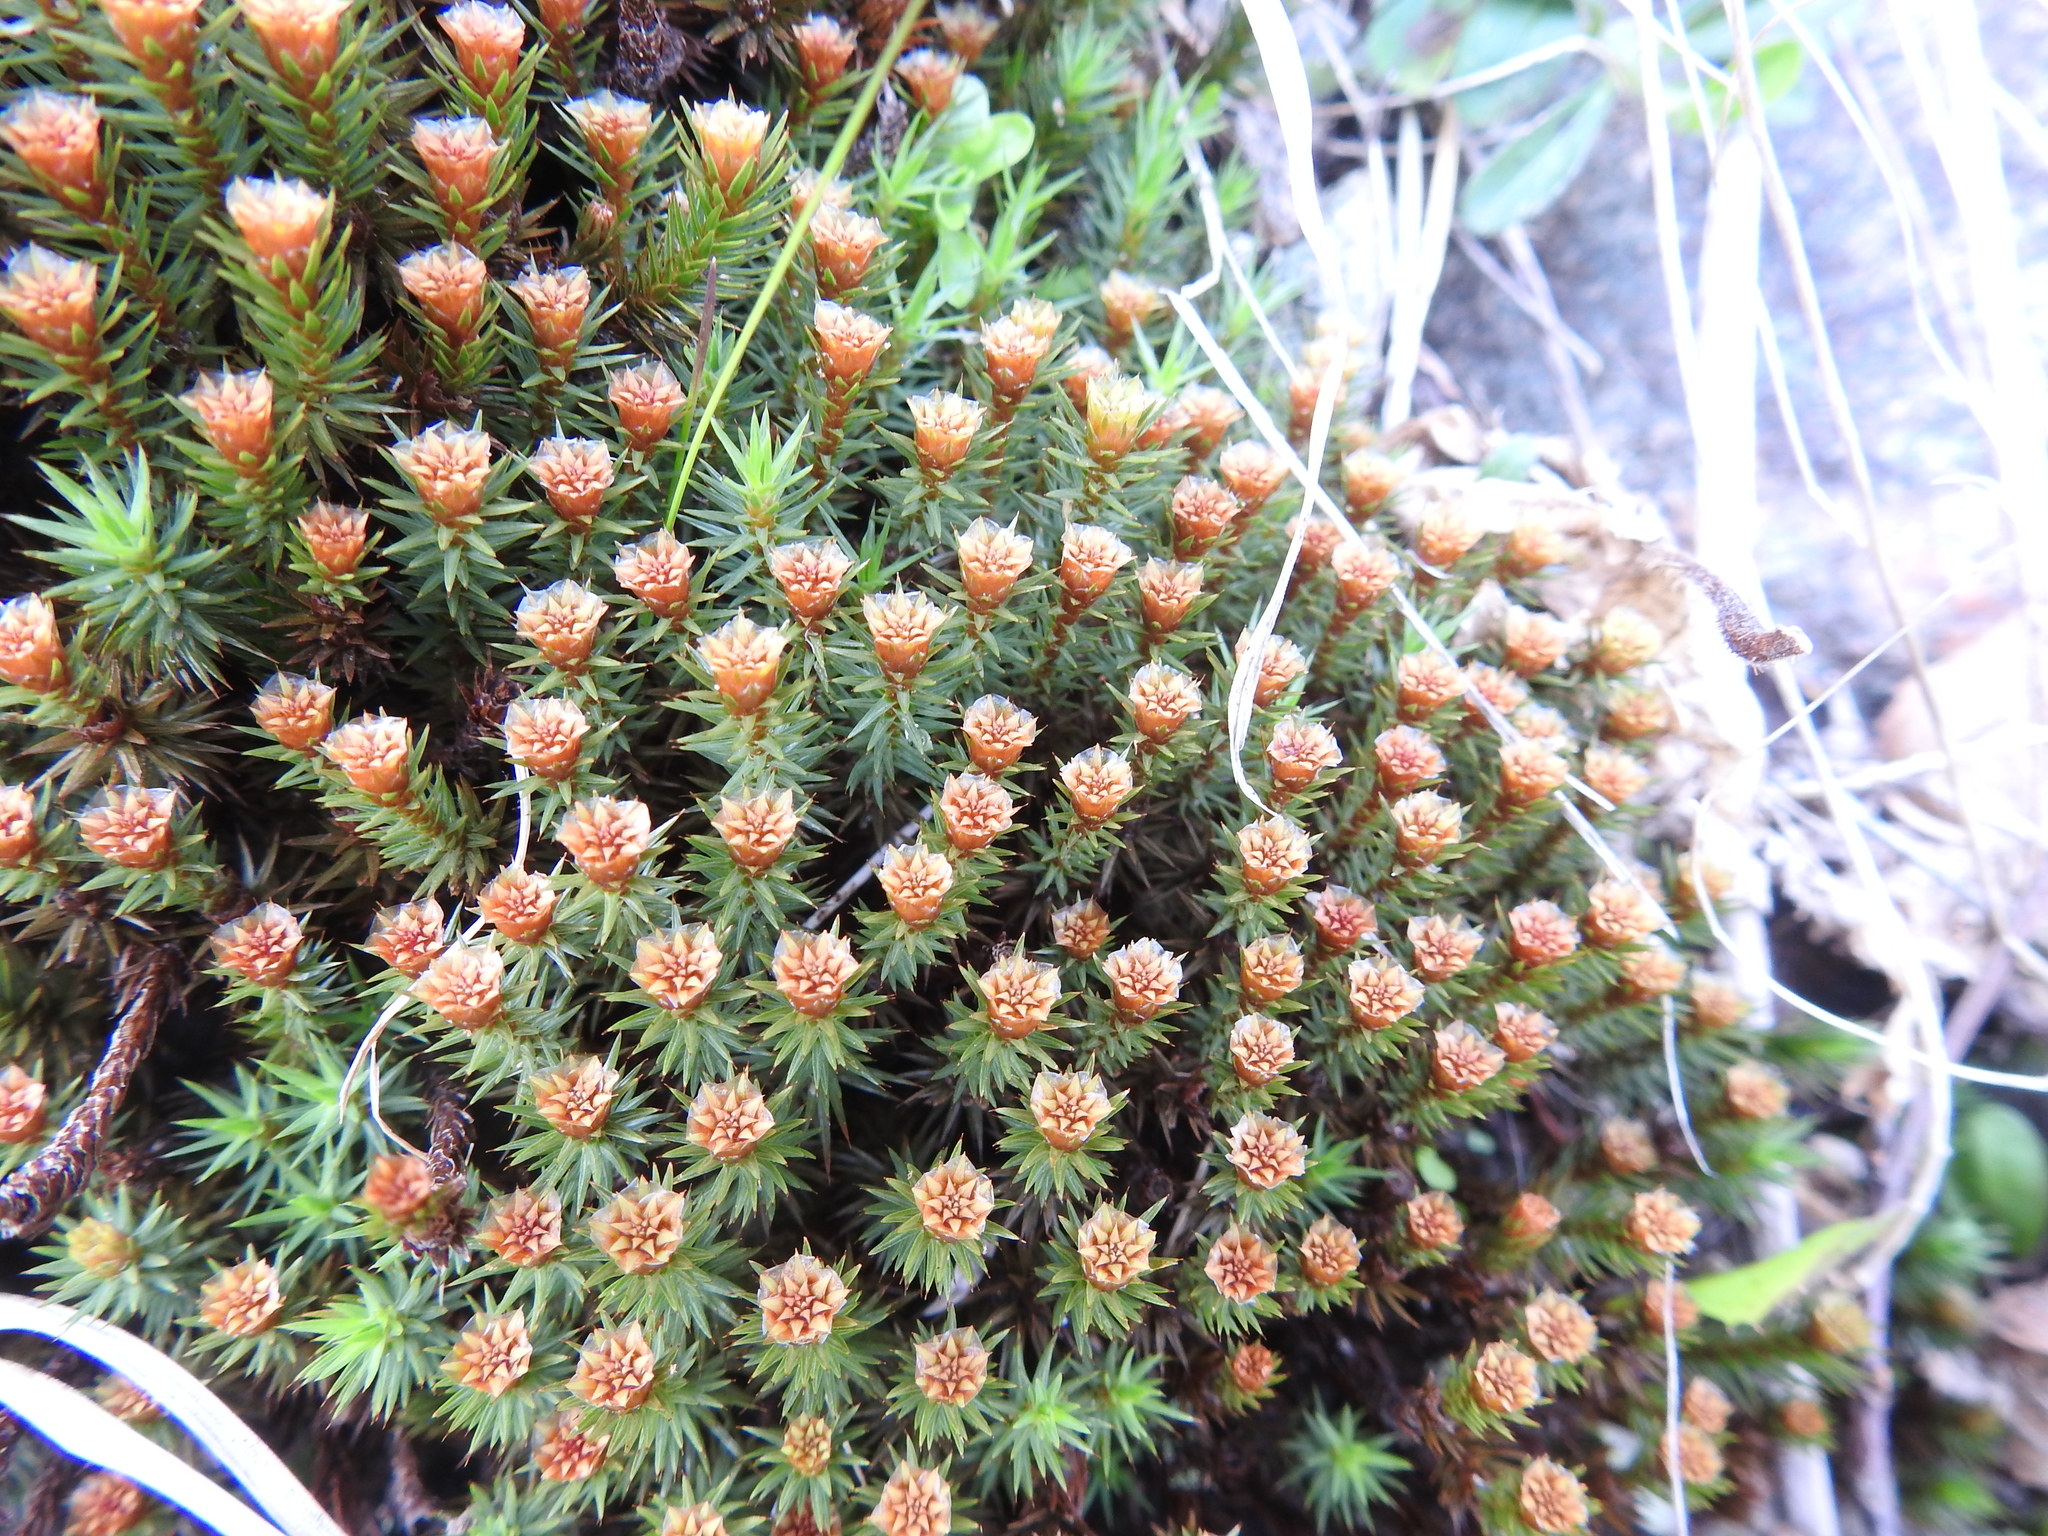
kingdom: Plantae
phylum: Bryophyta
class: Polytrichopsida
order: Polytrichales
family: Polytrichaceae
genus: Polytrichum
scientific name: Polytrichum juniperinum
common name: Juniper haircap moss
